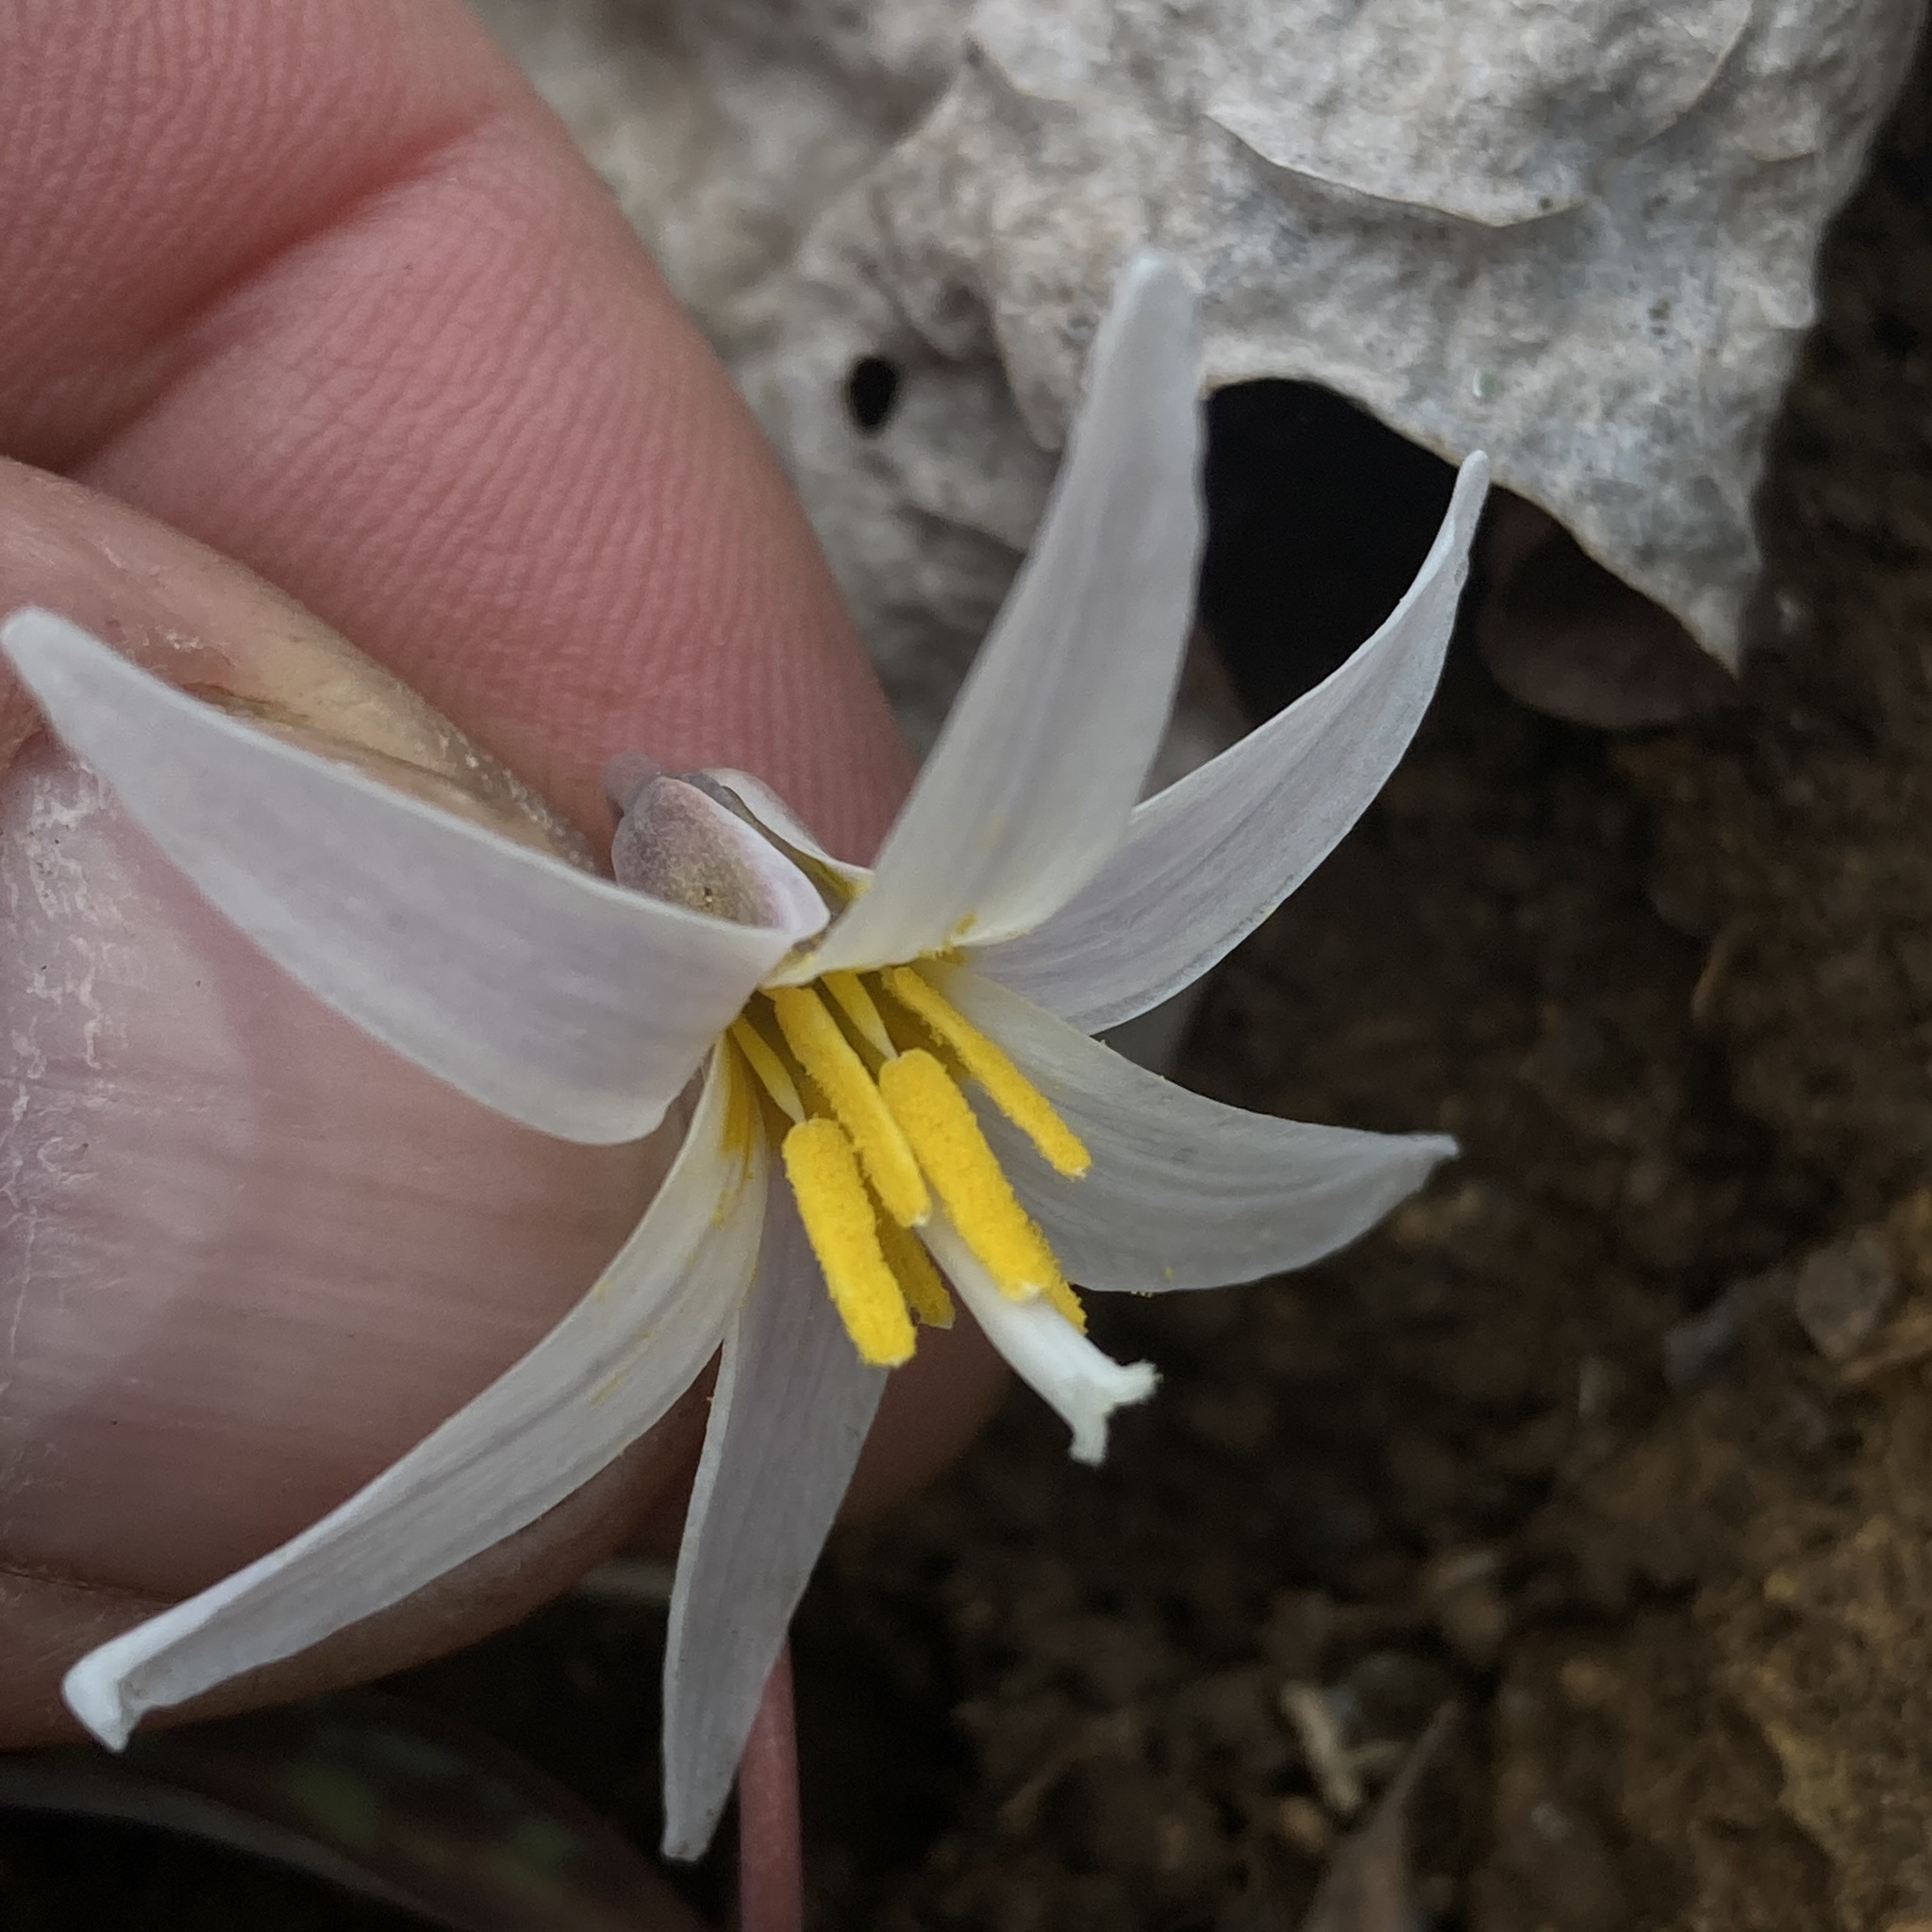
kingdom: Plantae
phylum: Tracheophyta
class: Liliopsida
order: Liliales
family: Liliaceae
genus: Erythronium
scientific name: Erythronium albidum
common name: White trout-lily
